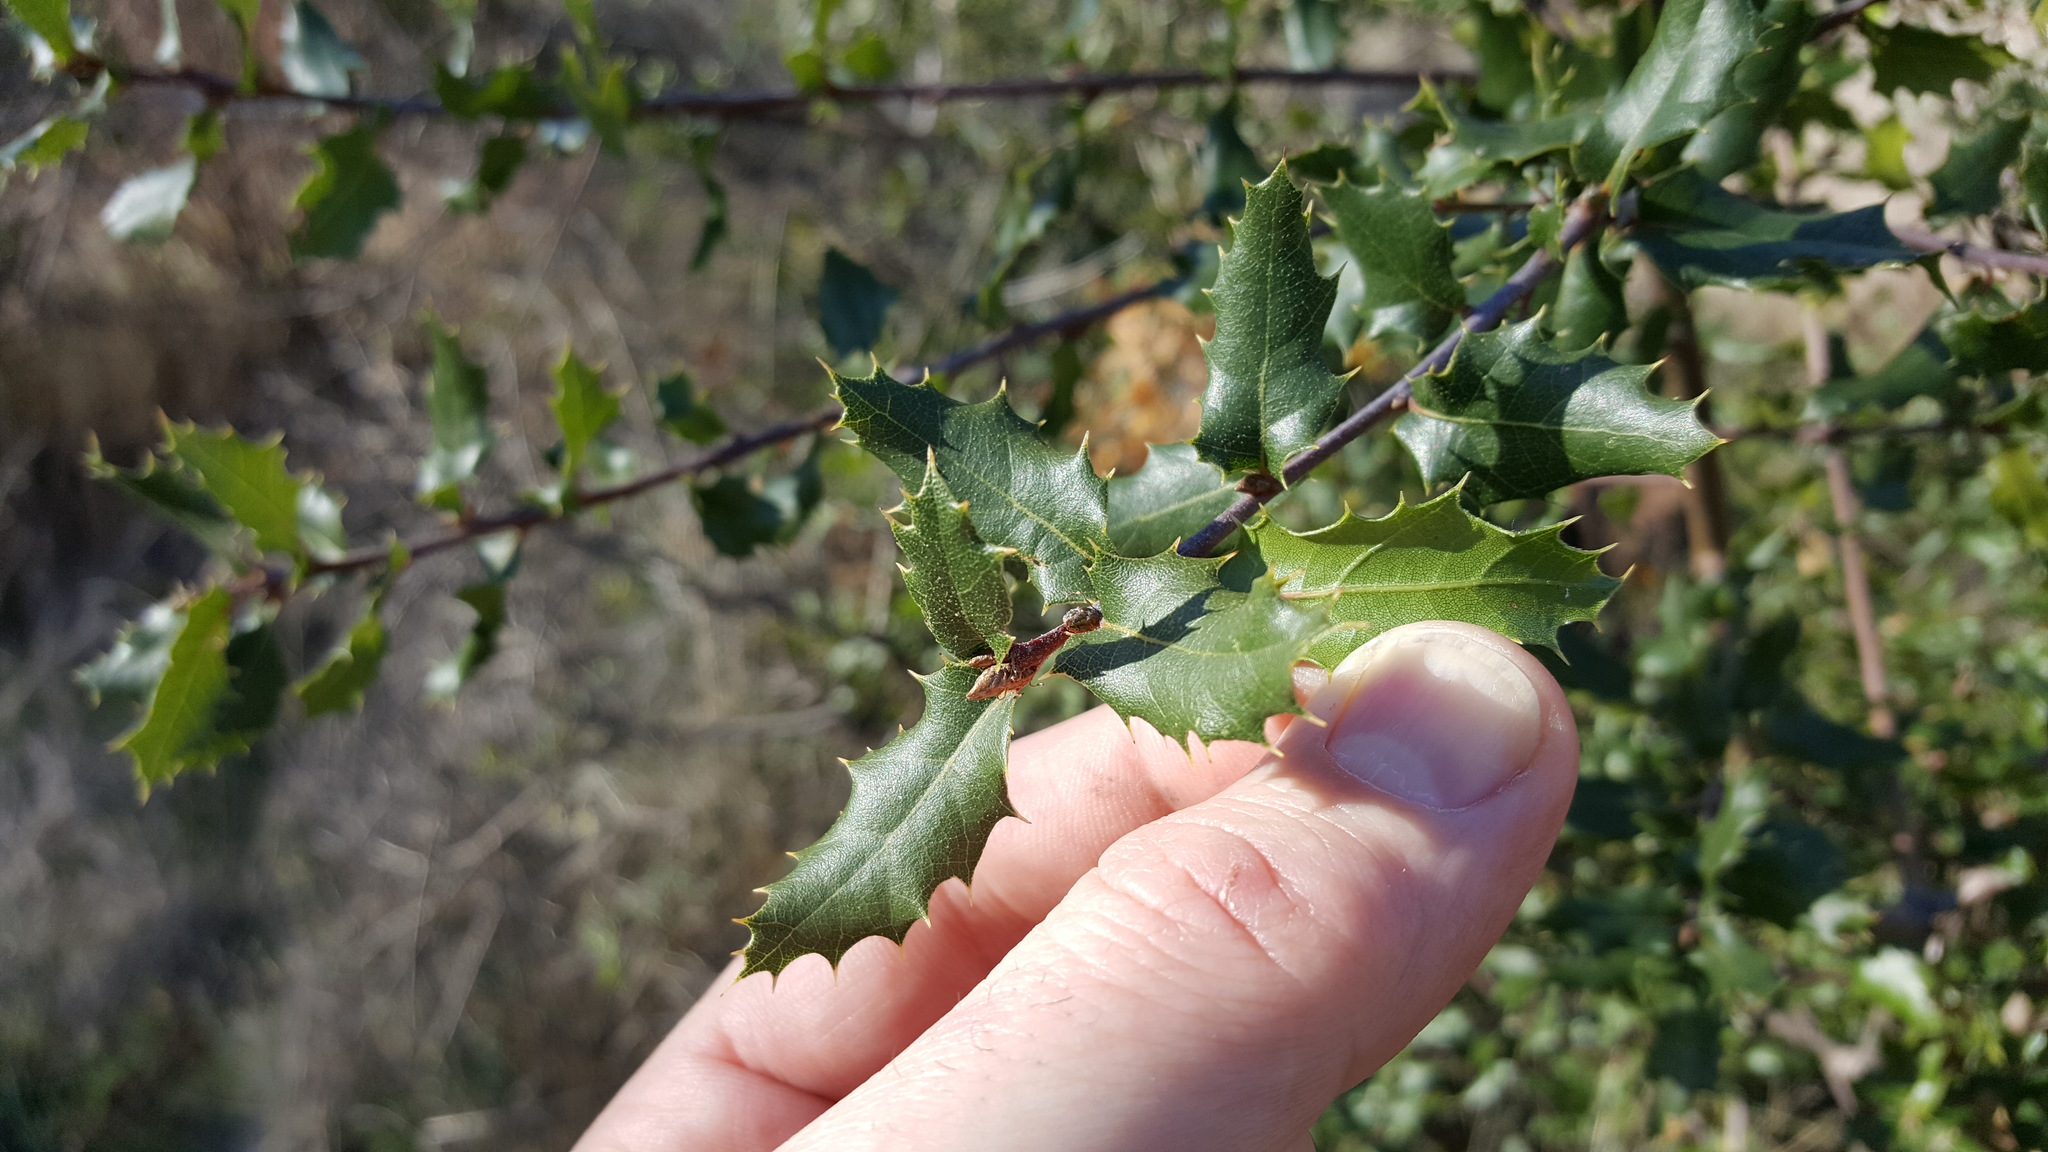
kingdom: Plantae
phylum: Tracheophyta
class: Magnoliopsida
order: Fagales
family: Fagaceae
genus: Quercus
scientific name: Quercus wislizeni
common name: Interior live oak
